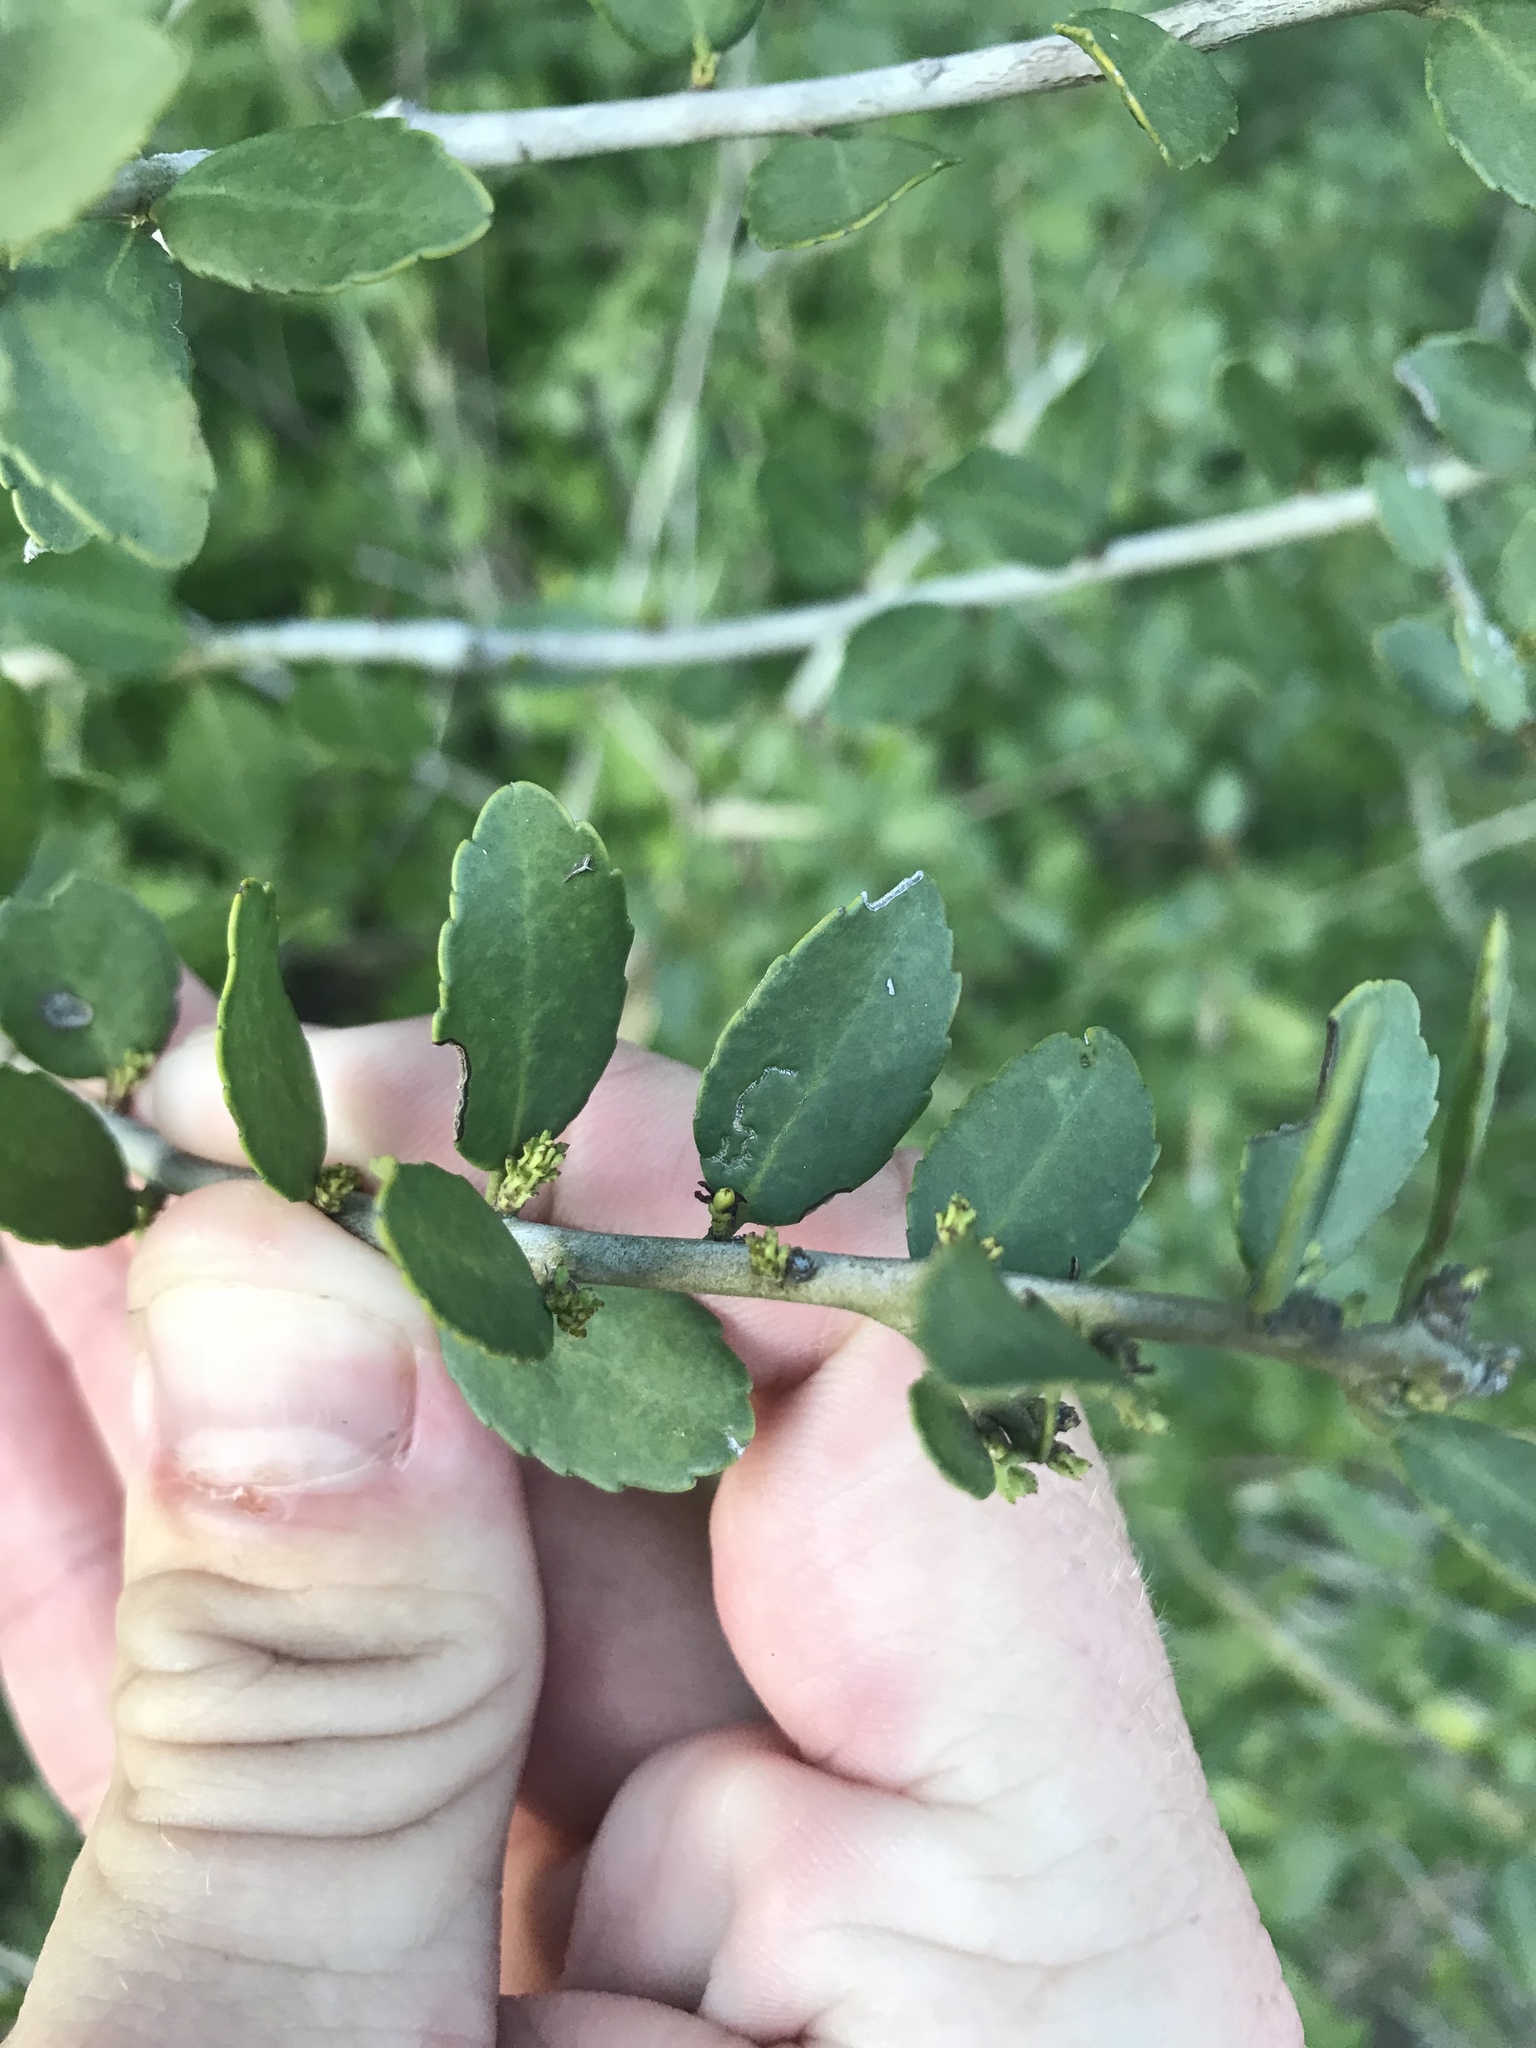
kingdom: Plantae
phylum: Tracheophyta
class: Magnoliopsida
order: Aquifoliales
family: Aquifoliaceae
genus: Ilex
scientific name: Ilex vomitoria
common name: Yaupon holly
